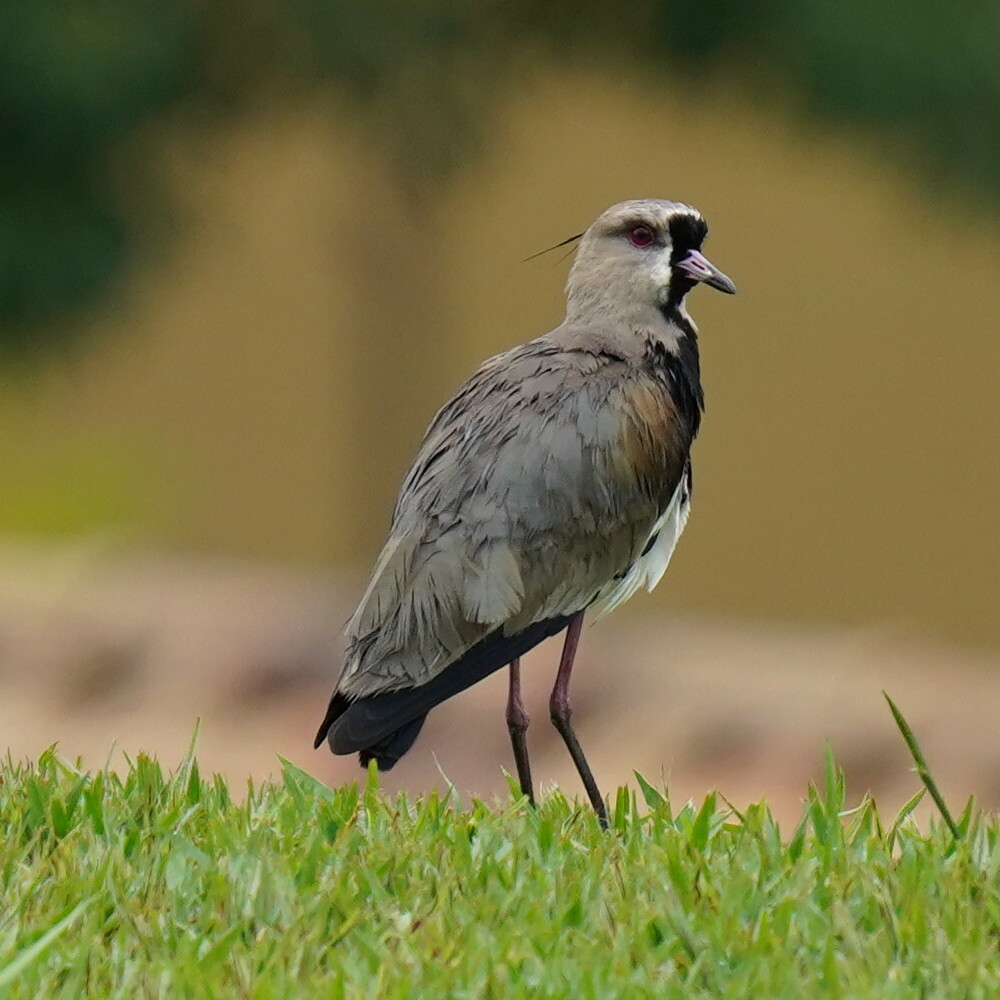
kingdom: Animalia
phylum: Chordata
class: Aves
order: Charadriiformes
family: Charadriidae
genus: Vanellus
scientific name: Vanellus chilensis
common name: Southern lapwing
